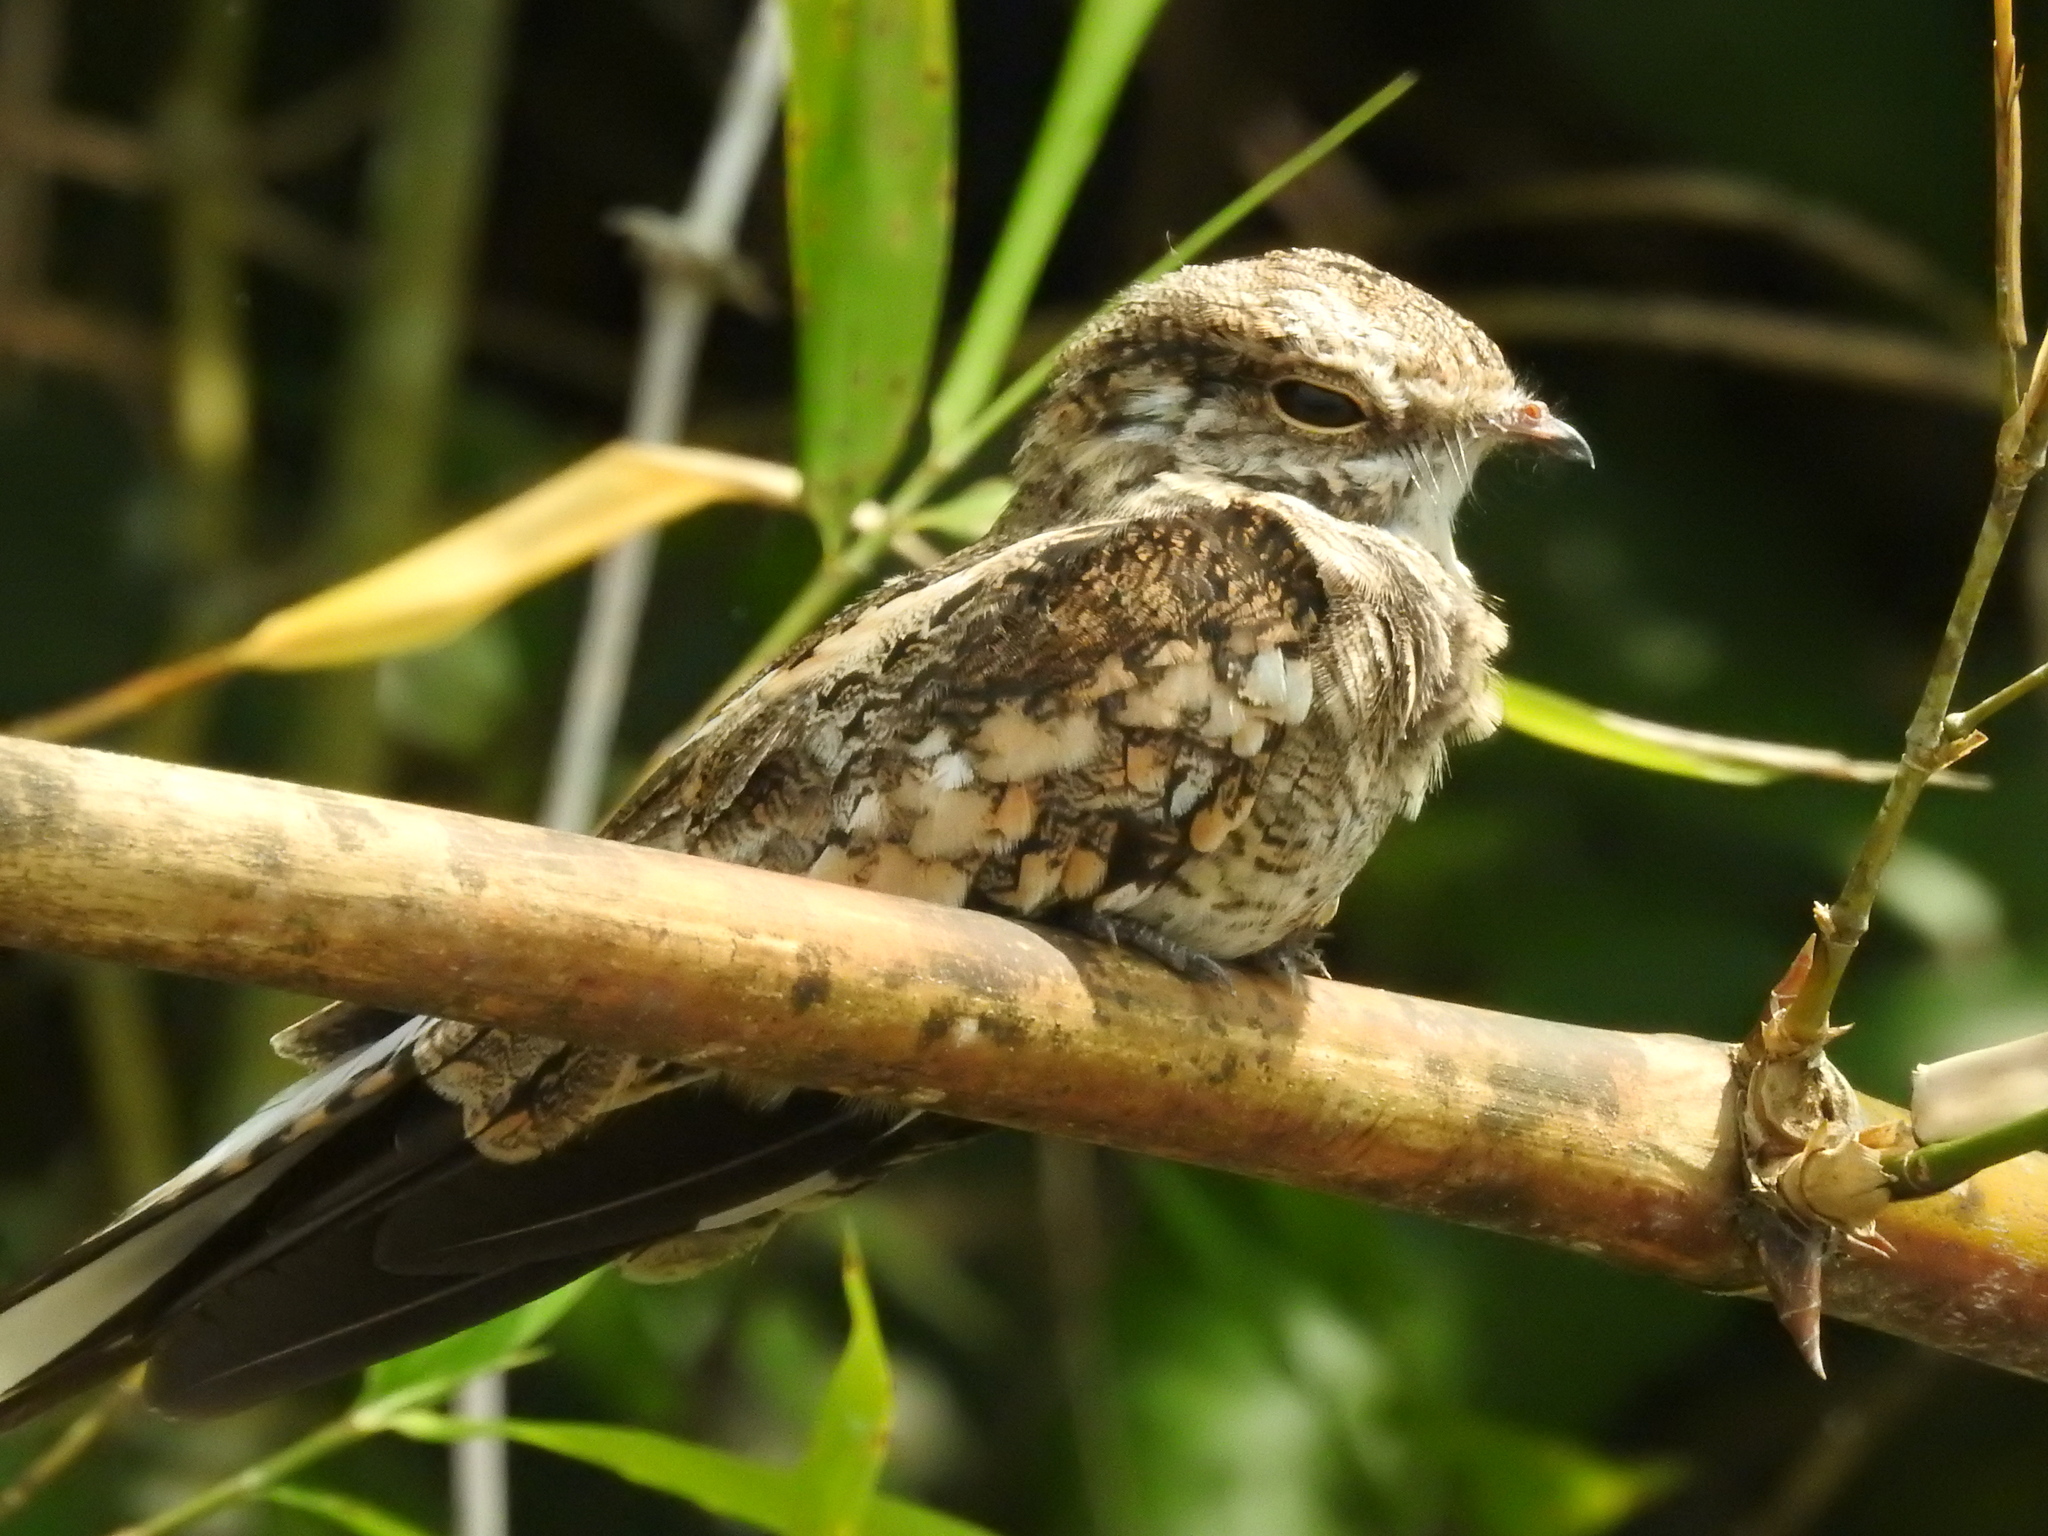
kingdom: Animalia
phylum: Chordata
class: Aves
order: Caprimulgiformes
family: Caprimulgidae
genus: Hydropsalis
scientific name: Hydropsalis climacocerca
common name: Ladder-tailed nightjar
